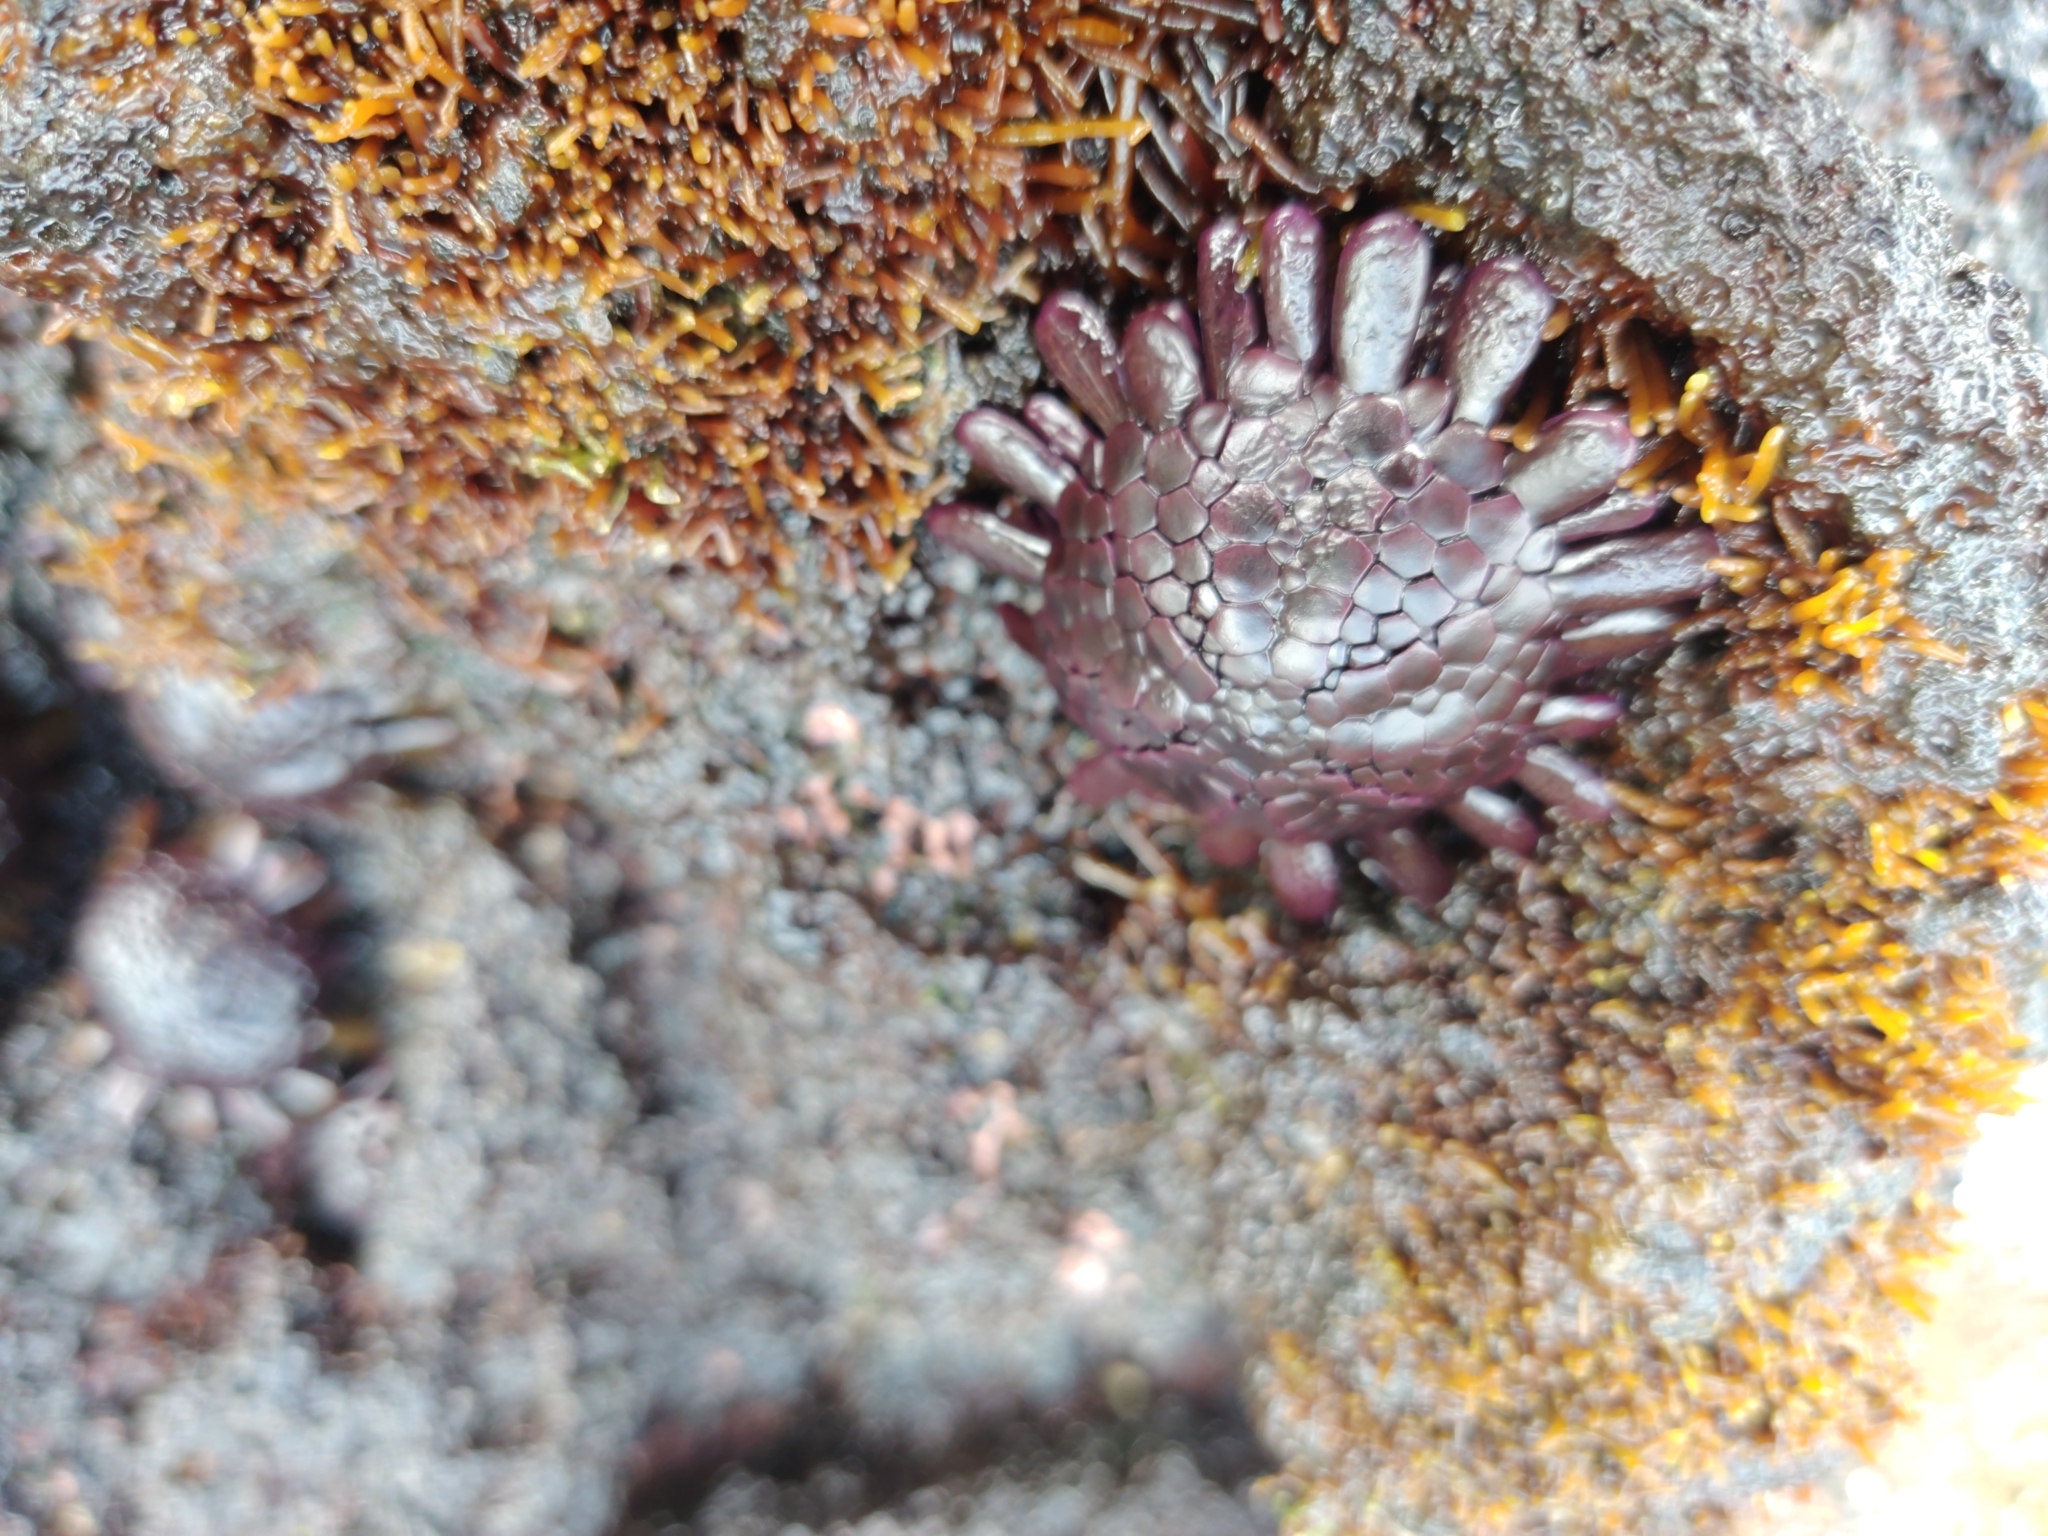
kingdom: Animalia
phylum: Echinodermata
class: Echinoidea
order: Camarodonta
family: Echinometridae
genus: Colobocentrotus
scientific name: Colobocentrotus atratus
